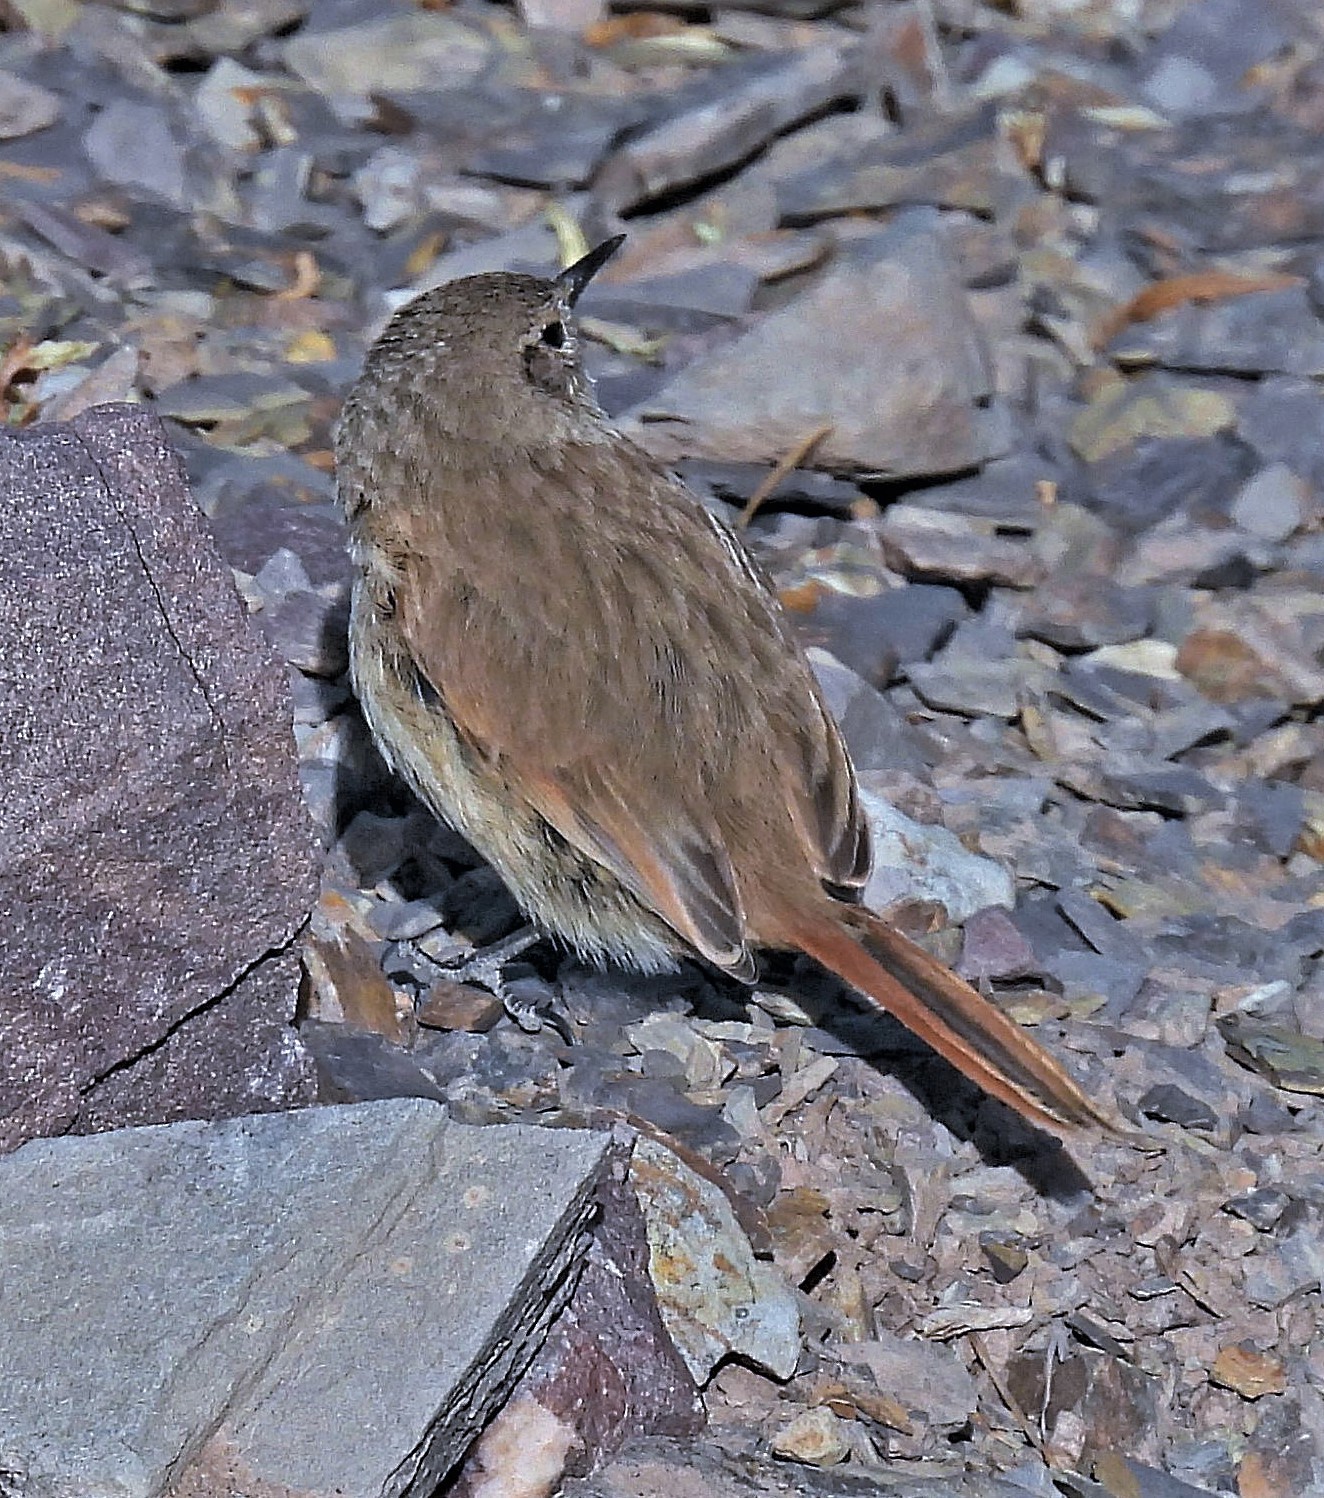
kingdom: Animalia
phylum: Chordata
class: Aves
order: Passeriformes
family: Furnariidae
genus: Asthenes
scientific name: Asthenes modesta
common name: Cordilleran canastero
